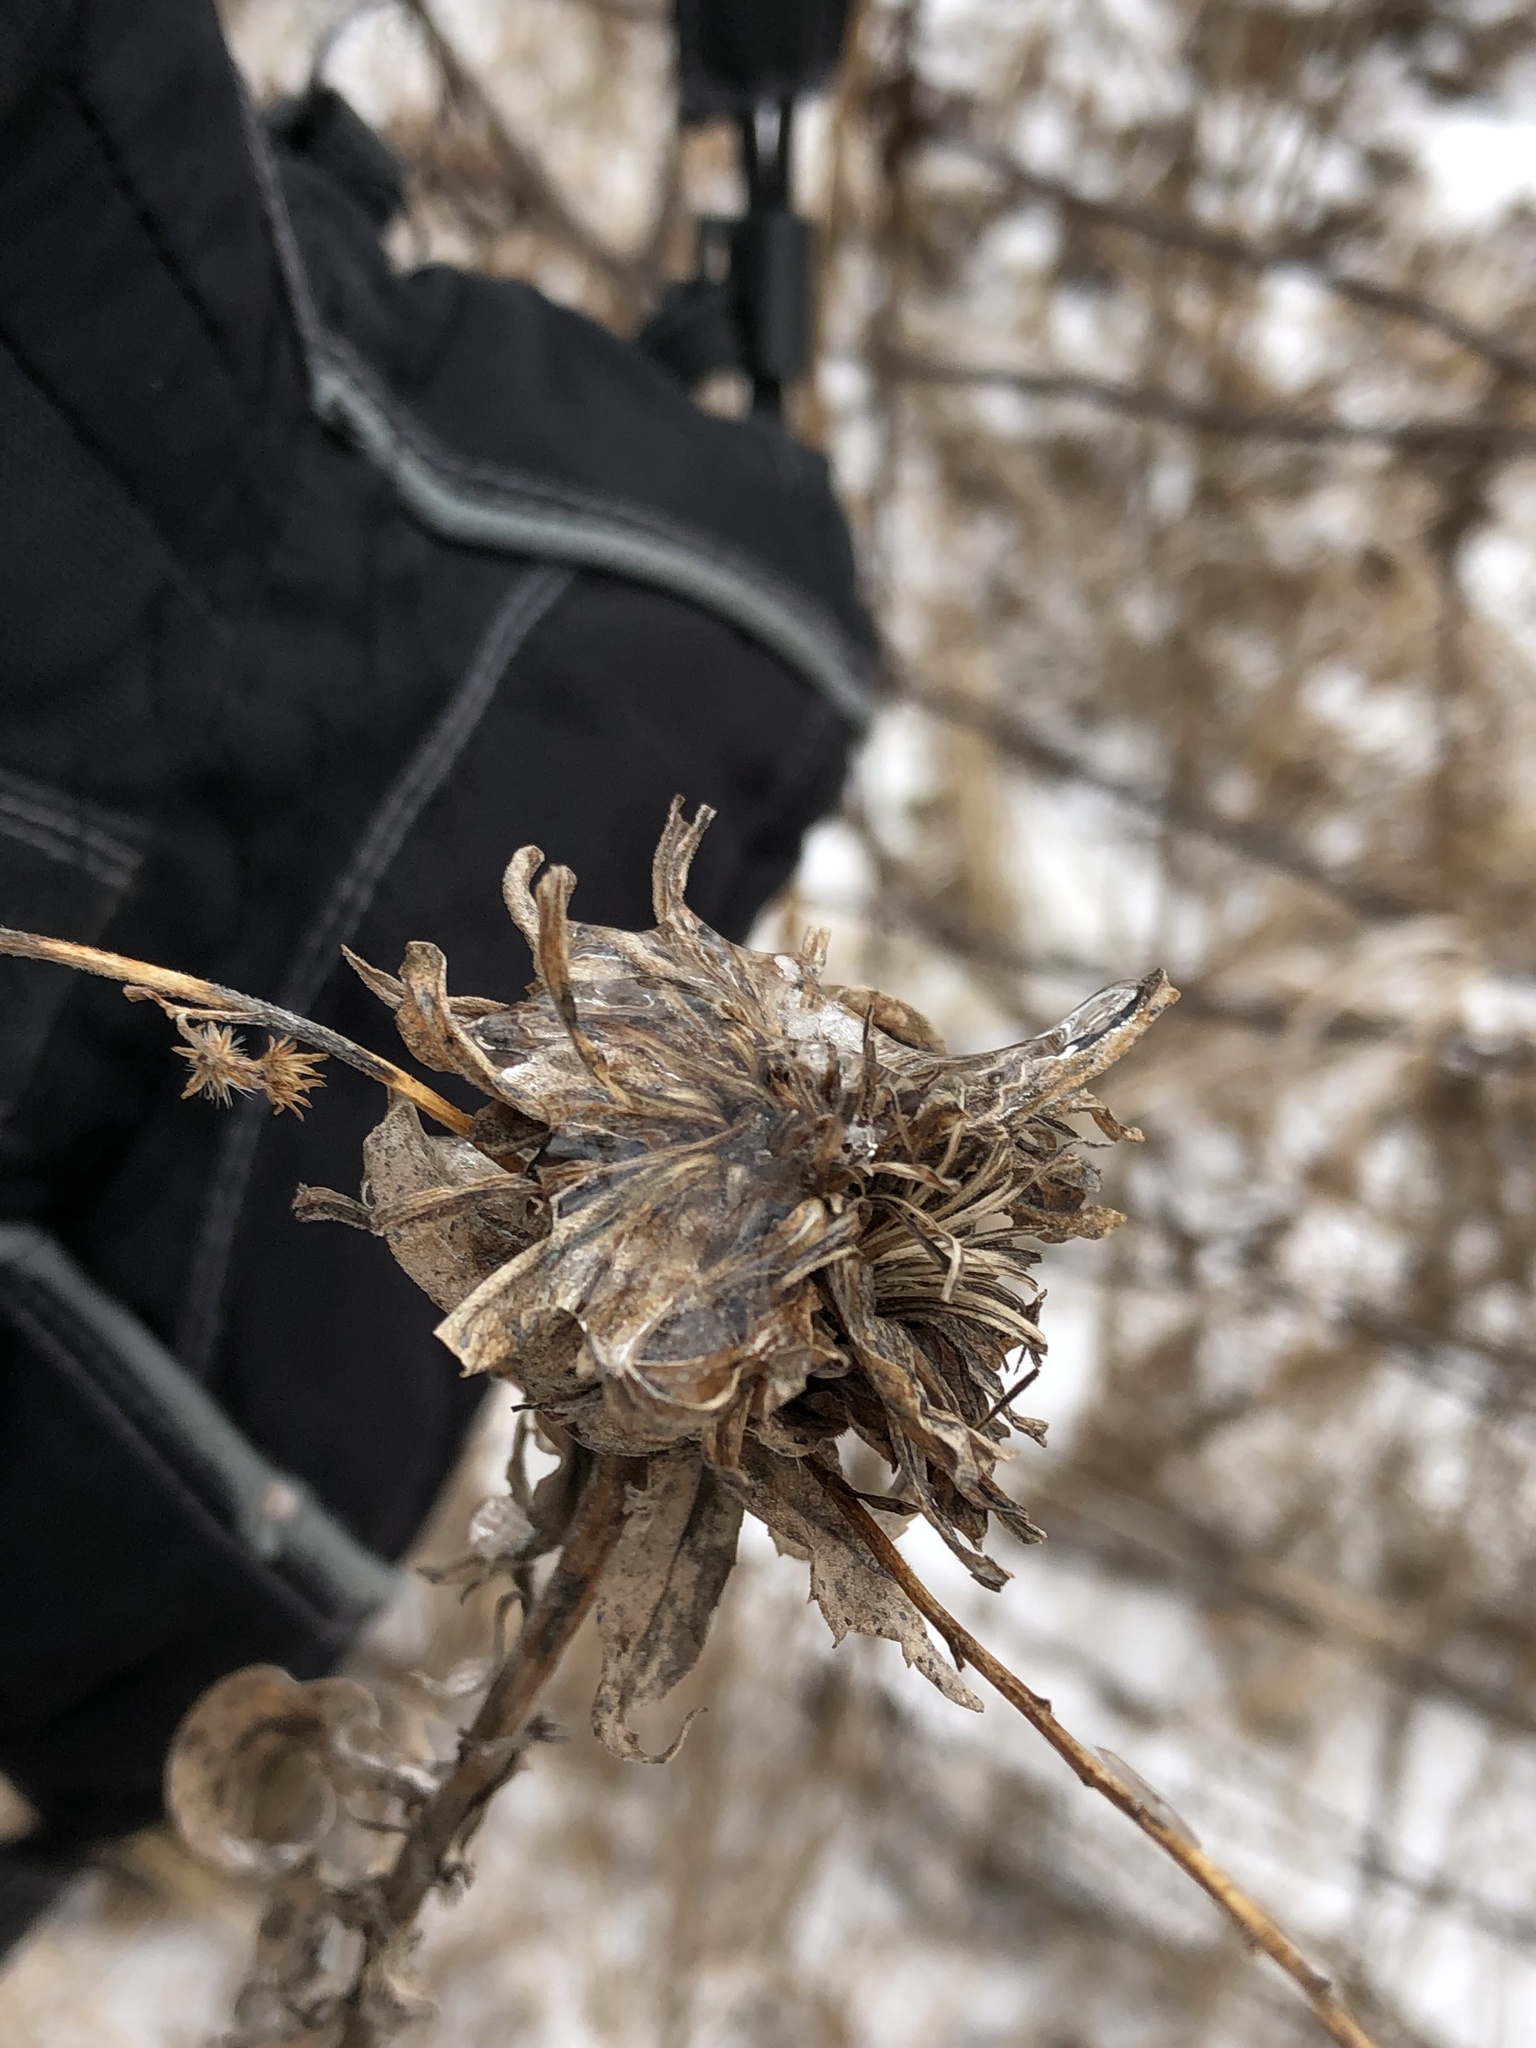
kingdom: Animalia
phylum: Arthropoda
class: Insecta
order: Diptera
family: Cecidomyiidae
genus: Rhopalomyia
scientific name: Rhopalomyia solidaginis
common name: Goldenrod bunch gall midge
